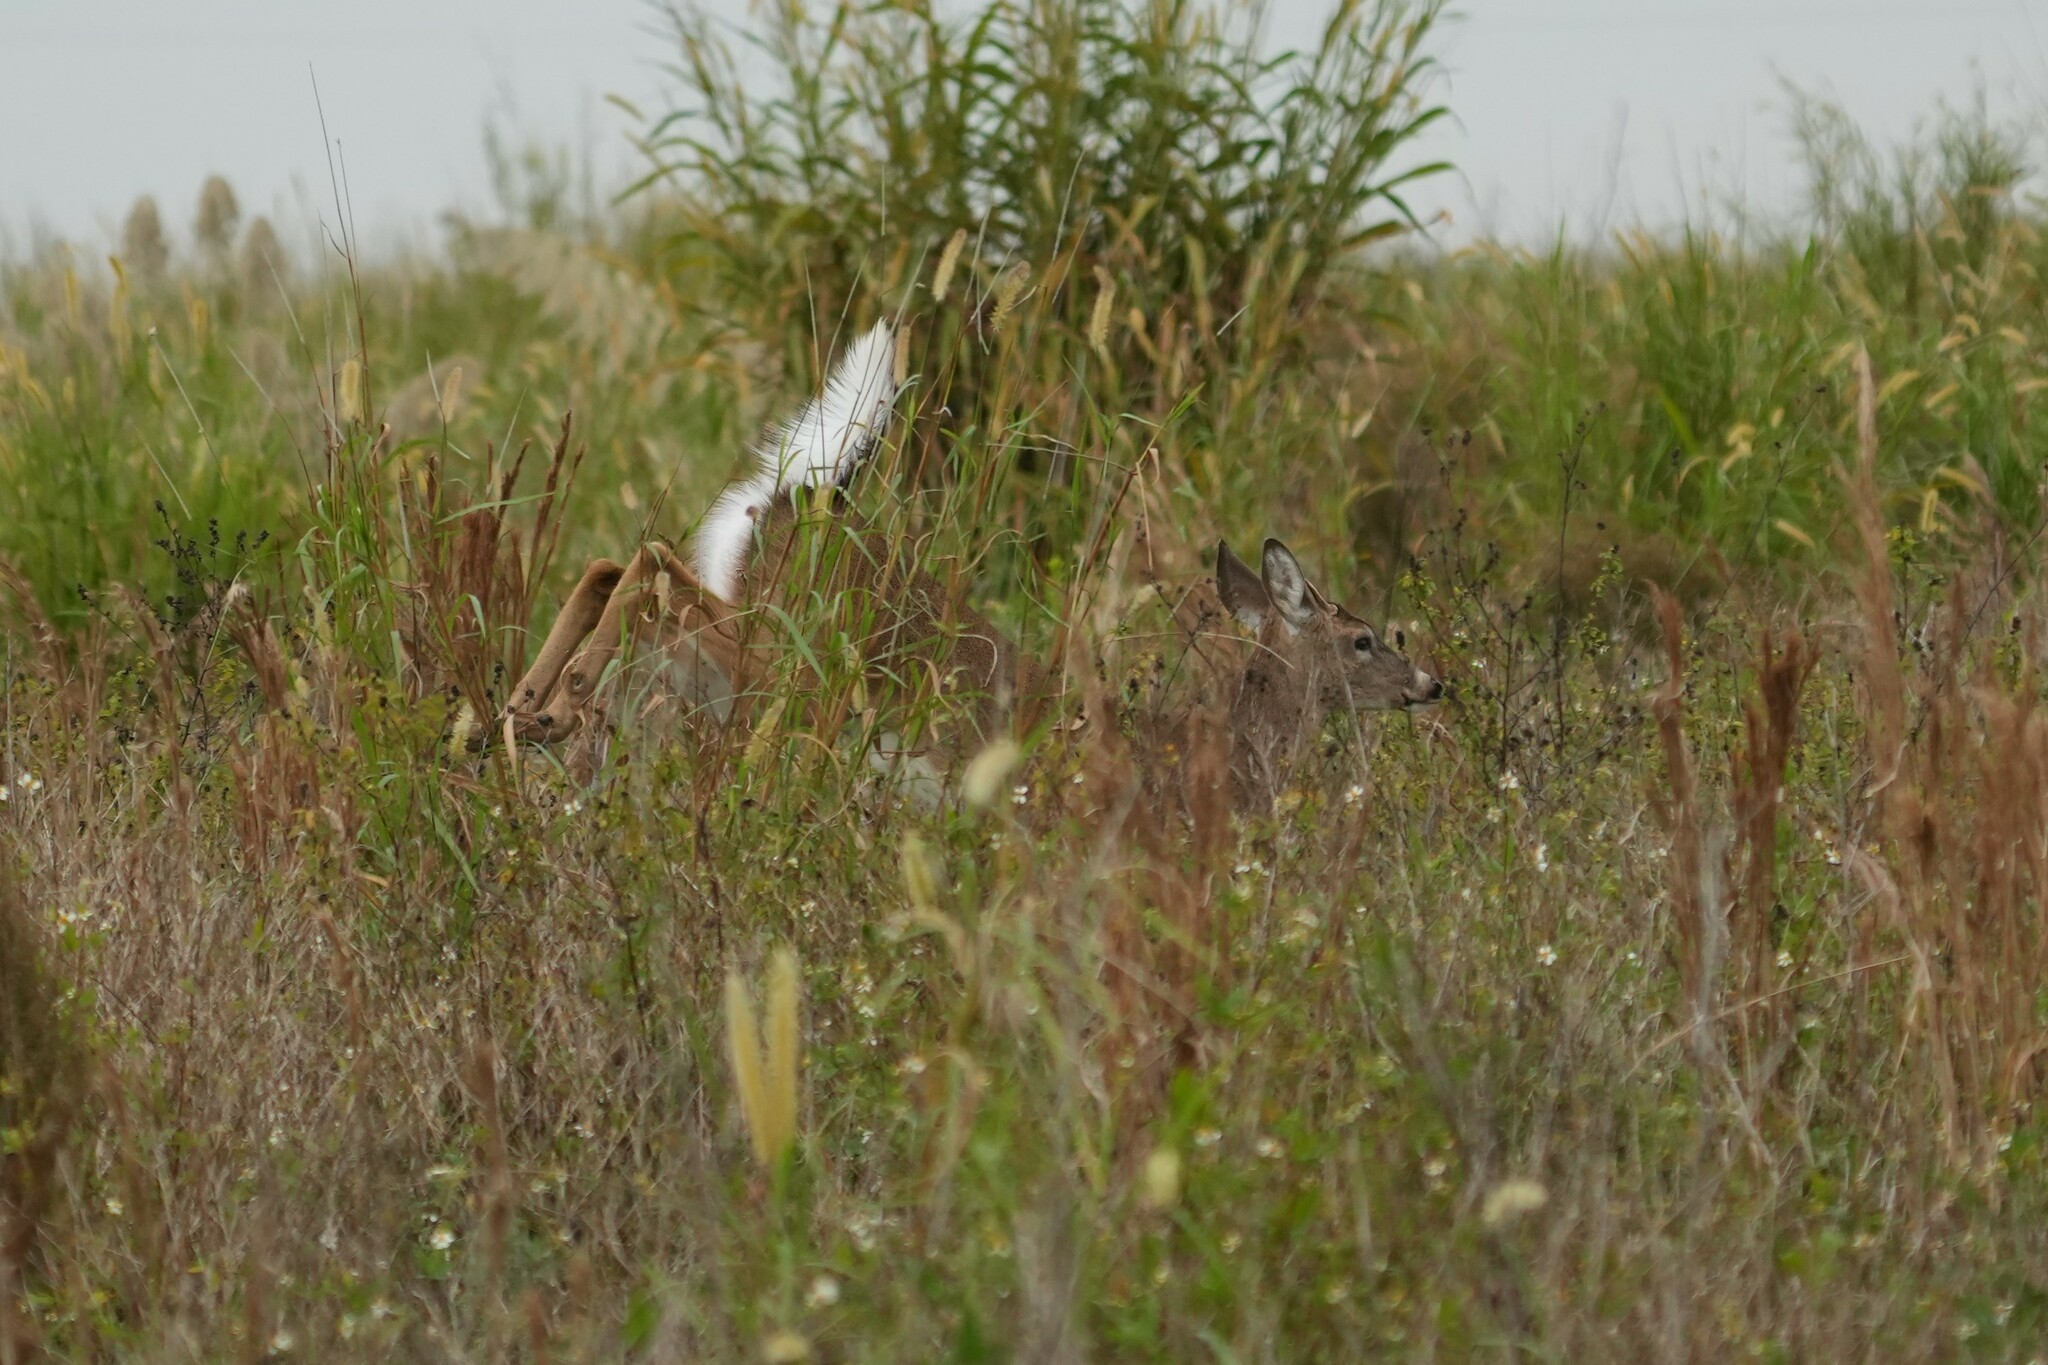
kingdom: Animalia
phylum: Chordata
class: Mammalia
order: Artiodactyla
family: Cervidae
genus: Odocoileus
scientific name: Odocoileus virginianus
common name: White-tailed deer
